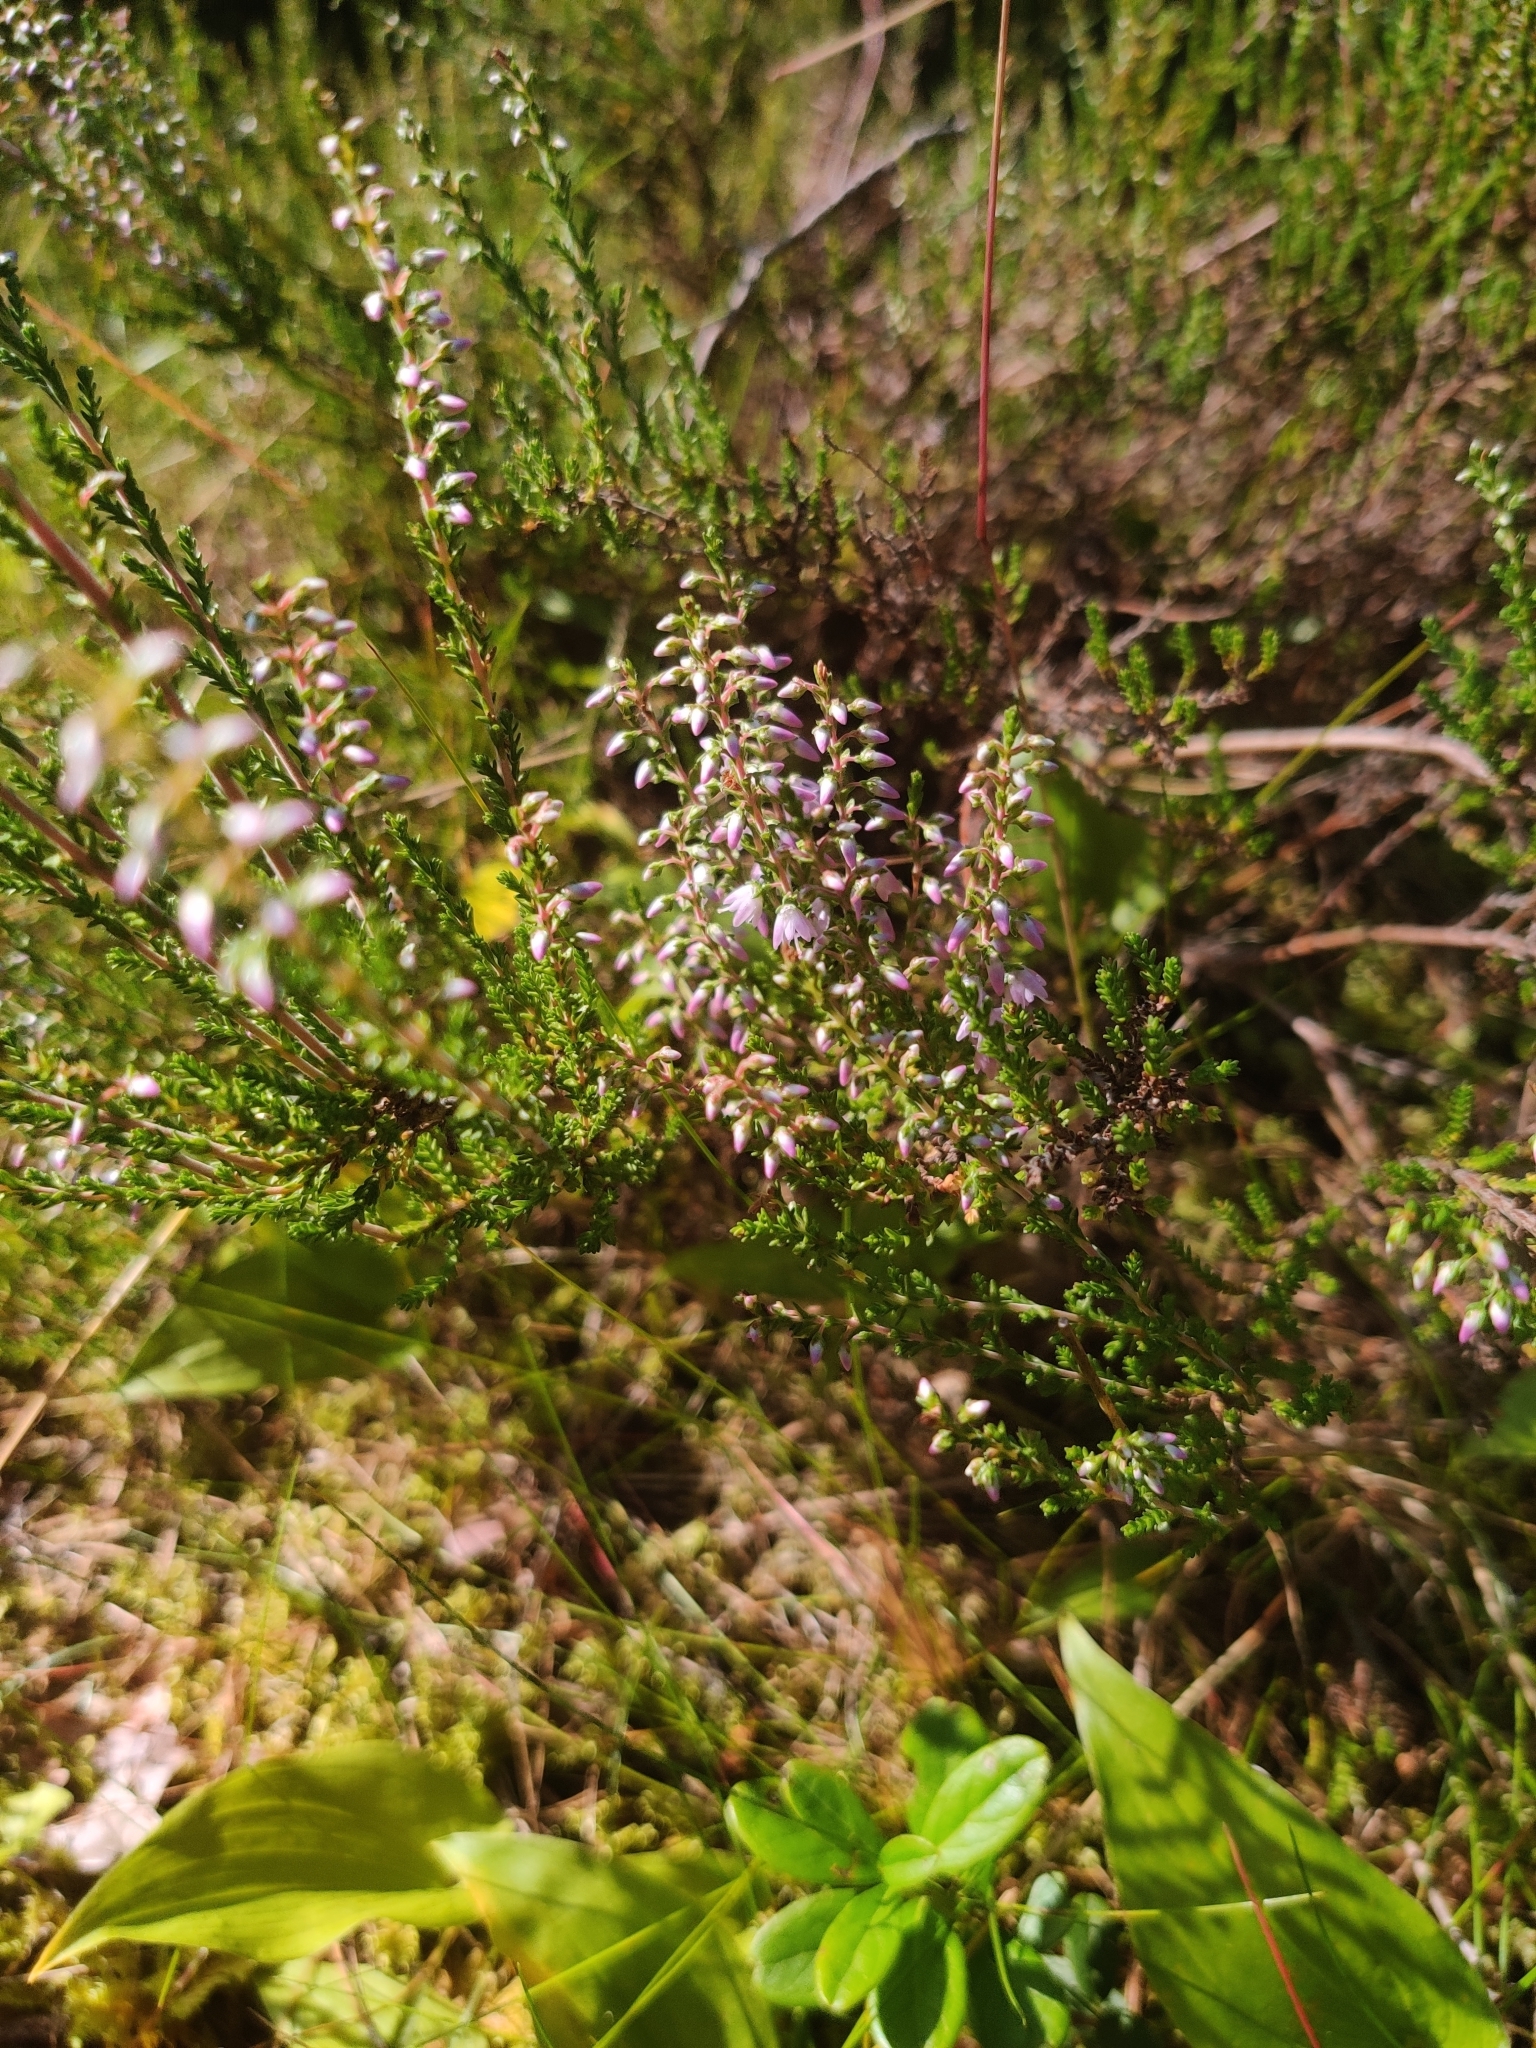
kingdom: Plantae
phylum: Tracheophyta
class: Magnoliopsida
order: Ericales
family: Ericaceae
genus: Calluna
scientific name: Calluna vulgaris
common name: Heather
